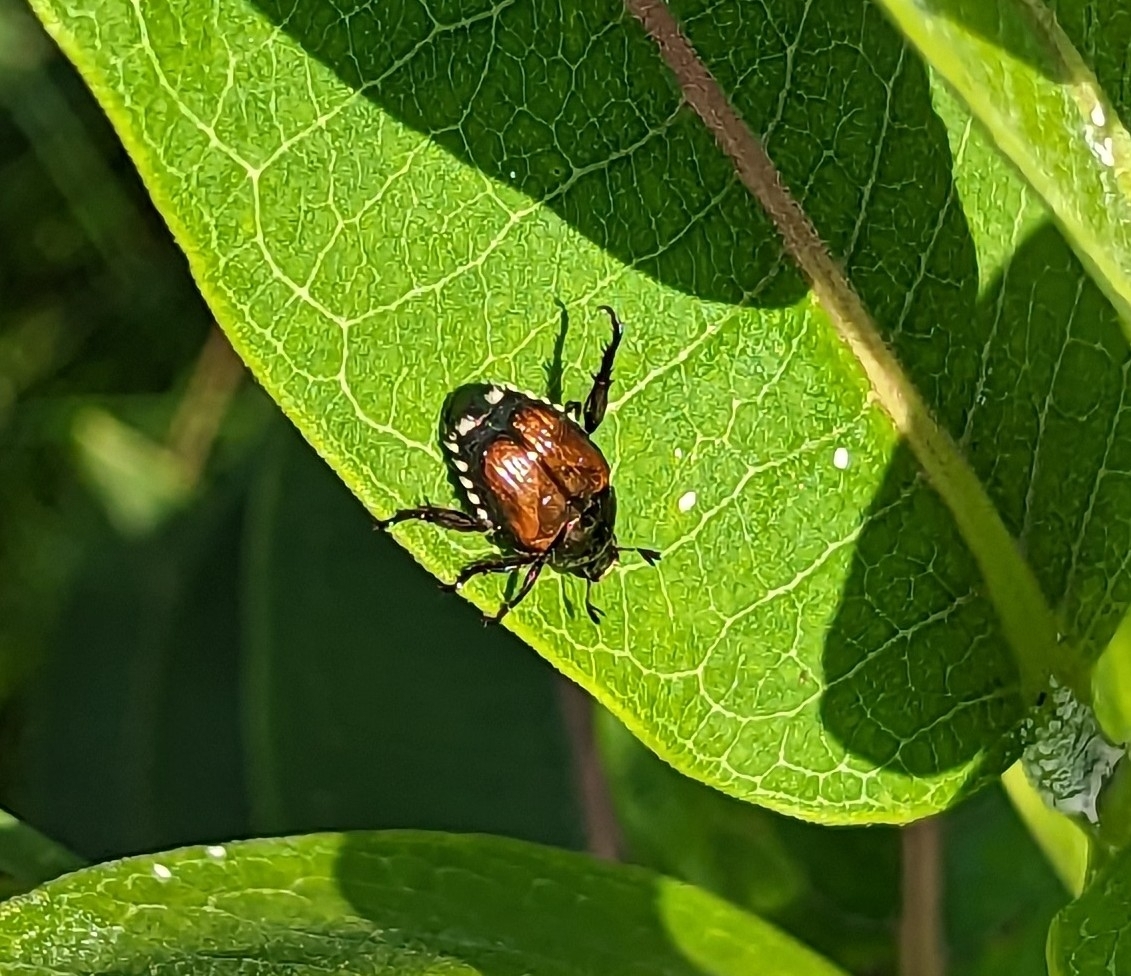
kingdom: Animalia
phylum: Arthropoda
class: Insecta
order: Coleoptera
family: Scarabaeidae
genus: Popillia
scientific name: Popillia japonica
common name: Japanese beetle
